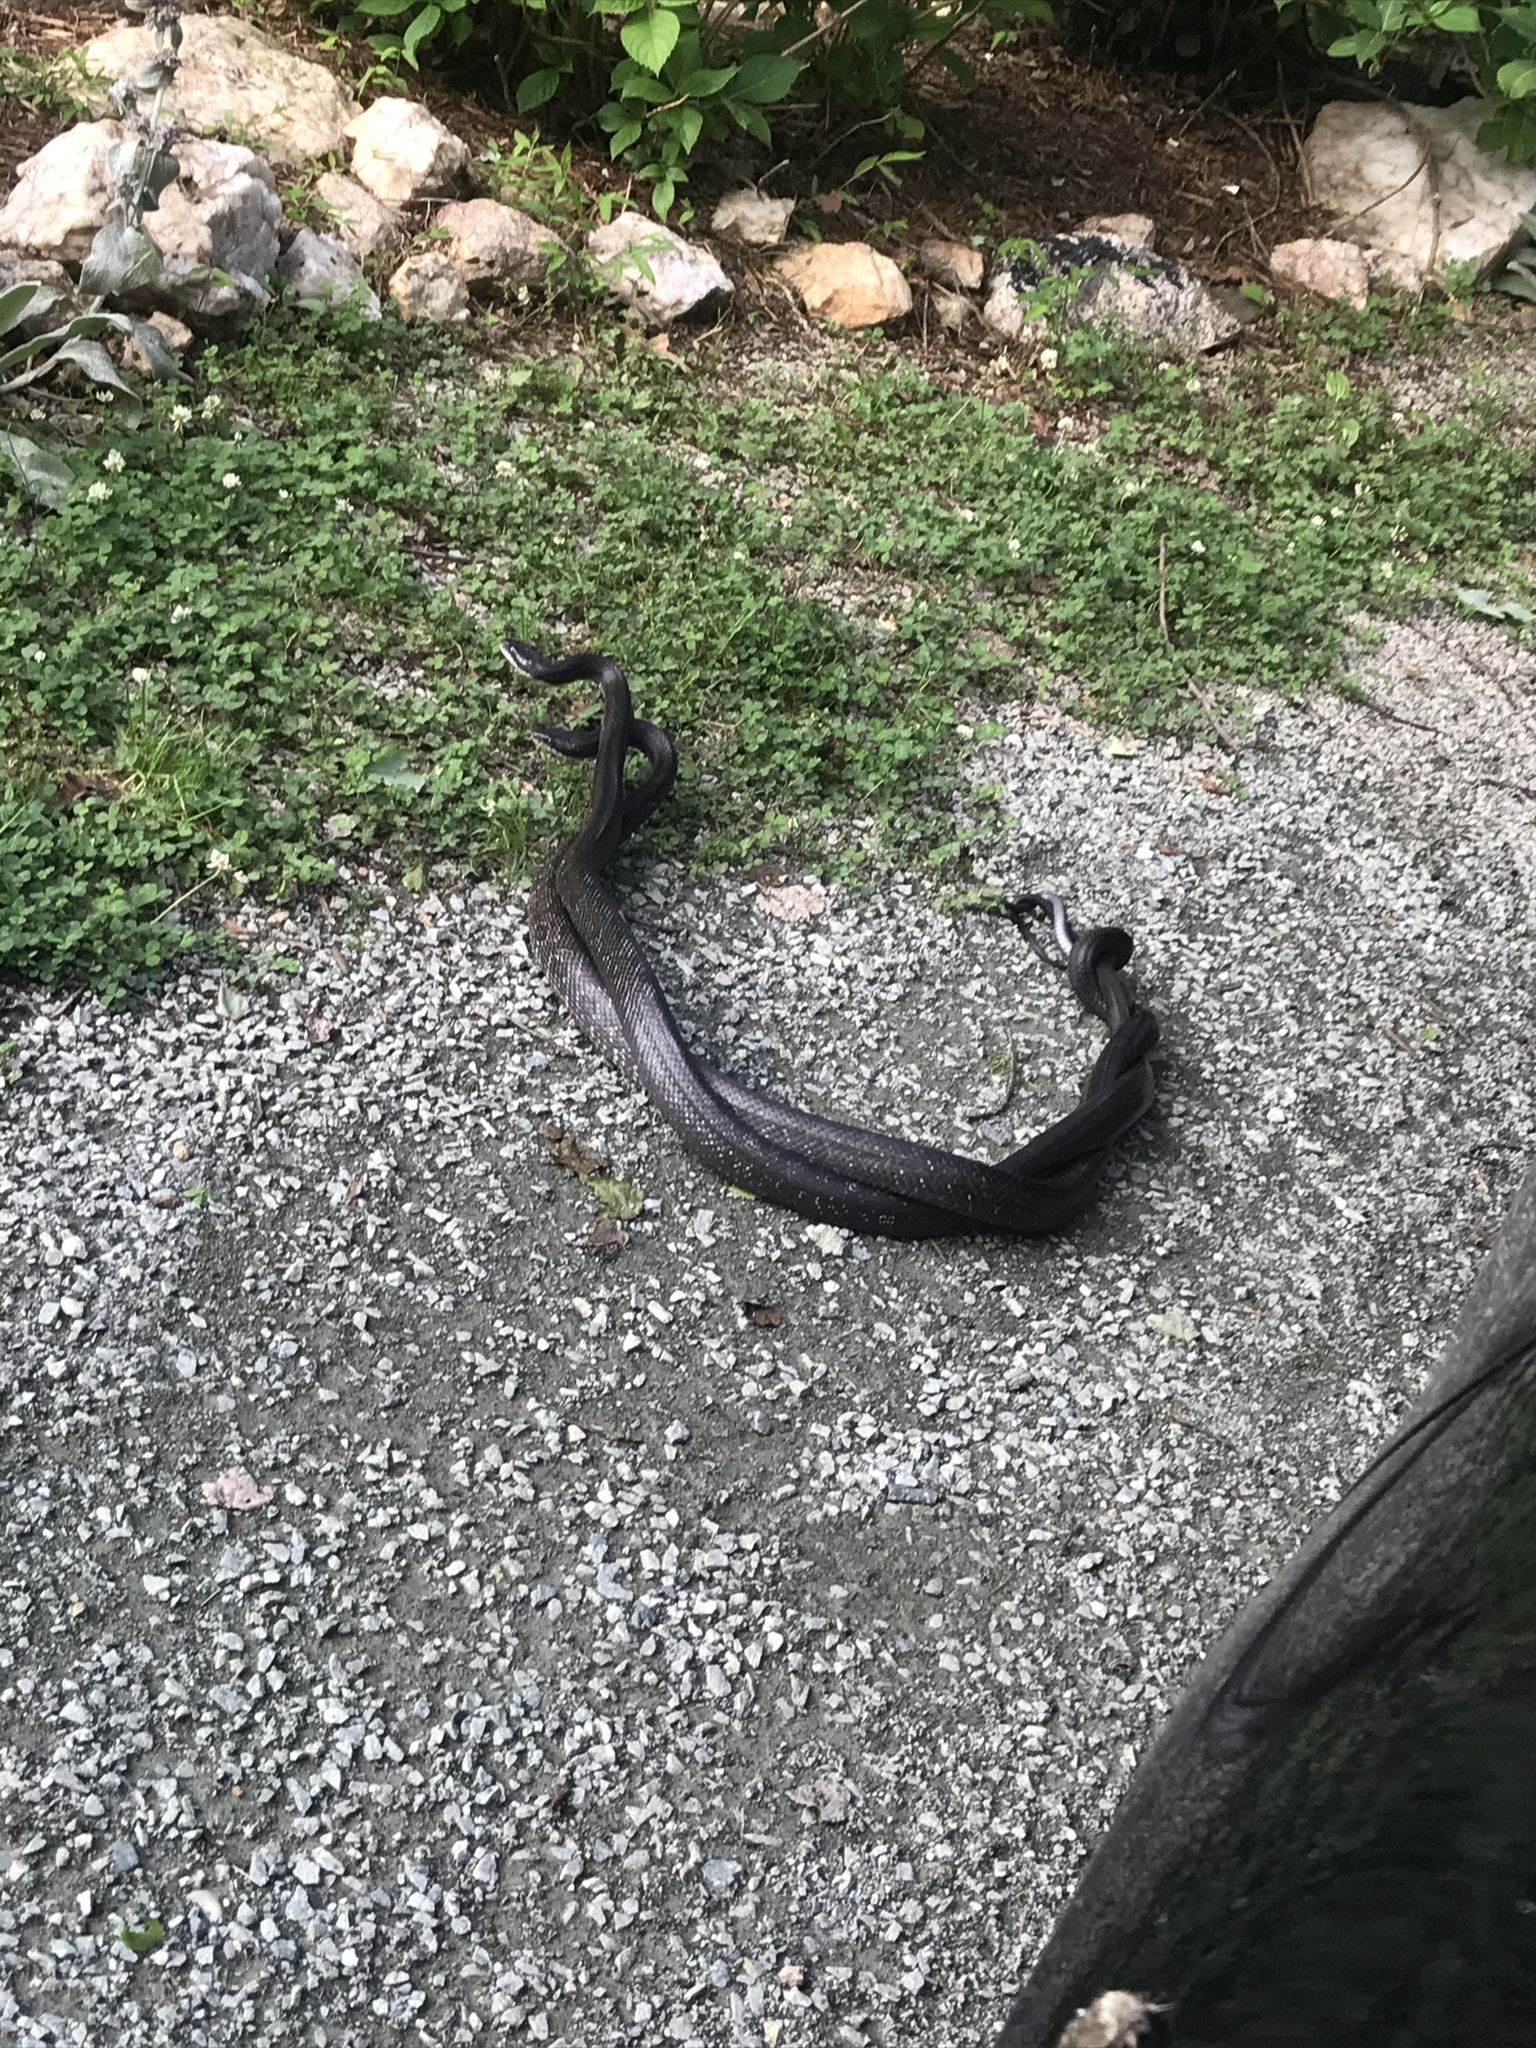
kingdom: Animalia
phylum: Chordata
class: Squamata
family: Colubridae
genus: Pantherophis
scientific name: Pantherophis alleghaniensis
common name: Eastern rat snake
